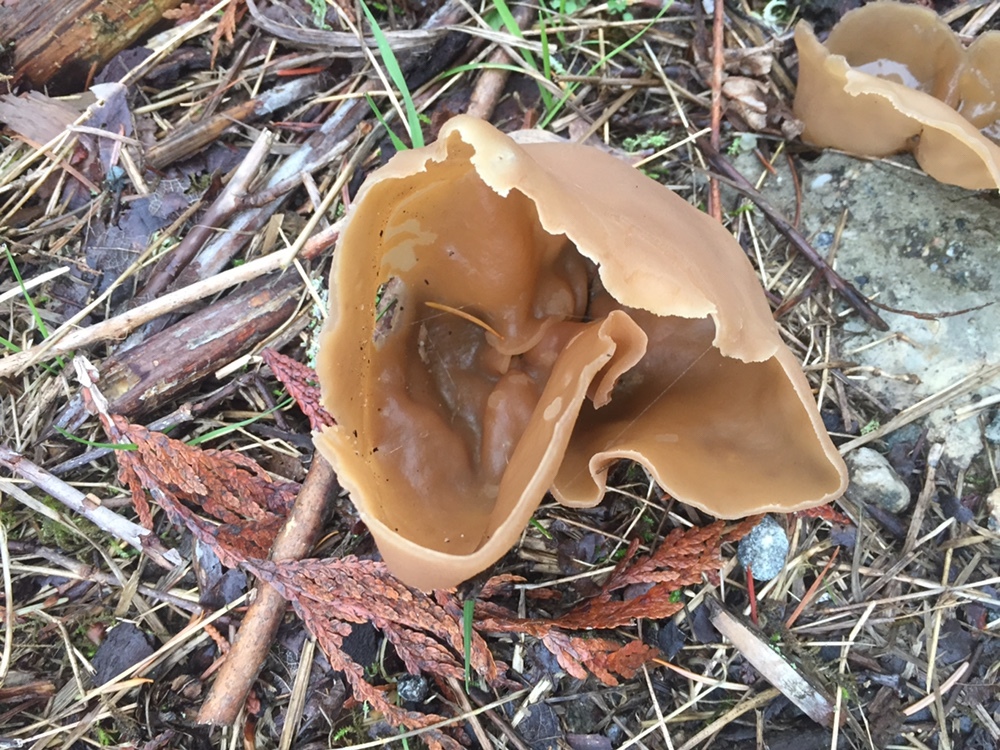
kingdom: Fungi
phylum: Ascomycota
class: Pezizomycetes
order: Pezizales
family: Pezizaceae
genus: Peziza
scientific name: Peziza varia
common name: Layered cup
